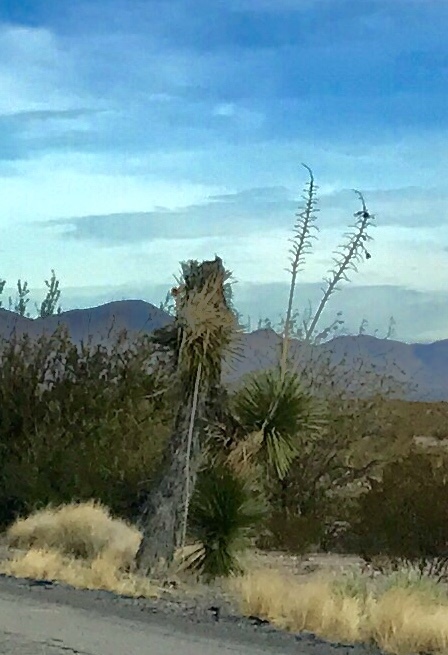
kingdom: Plantae
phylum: Tracheophyta
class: Liliopsida
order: Asparagales
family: Asparagaceae
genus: Yucca
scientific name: Yucca elata
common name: Palmella
